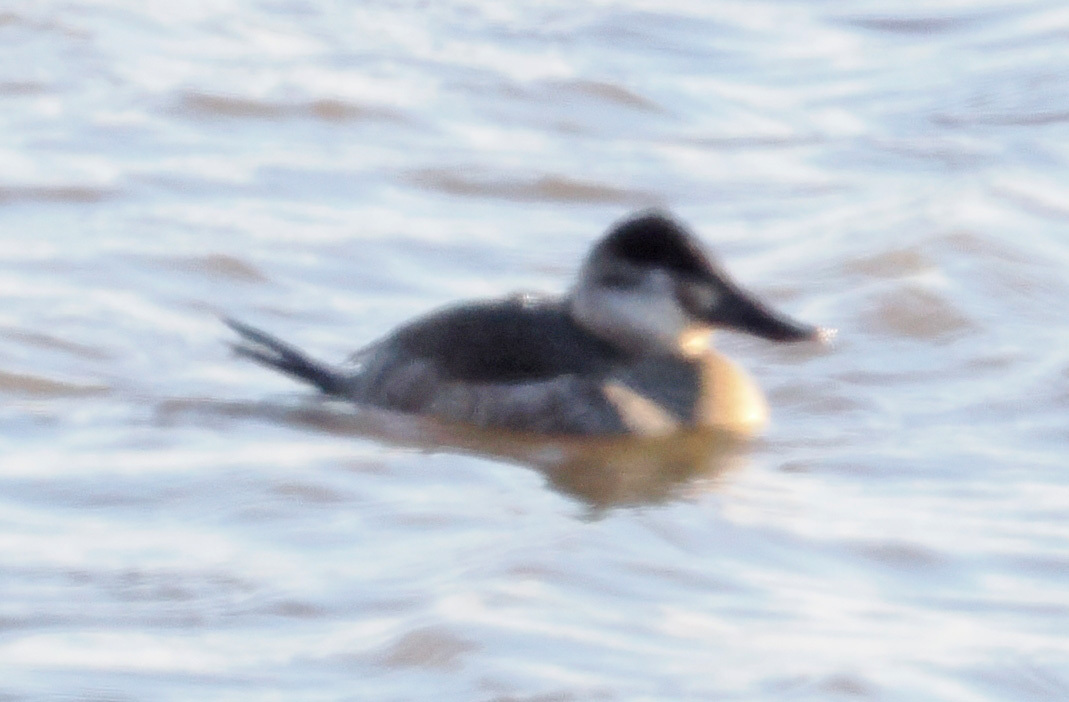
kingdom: Animalia
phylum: Chordata
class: Aves
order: Anseriformes
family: Anatidae
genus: Oxyura
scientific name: Oxyura jamaicensis
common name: Ruddy duck
